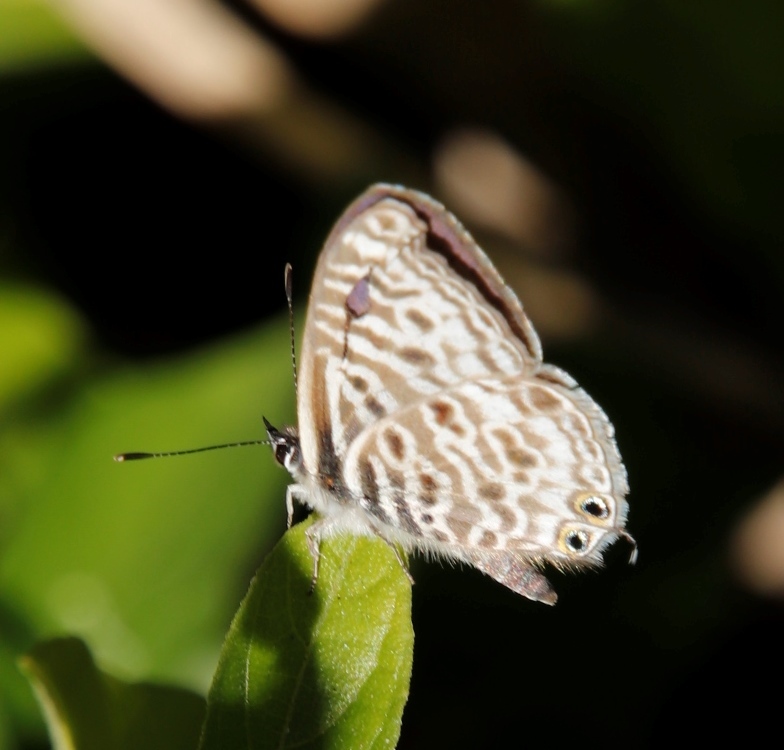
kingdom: Animalia
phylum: Arthropoda
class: Insecta
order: Lepidoptera
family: Lycaenidae
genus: Leptotes
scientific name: Leptotes
